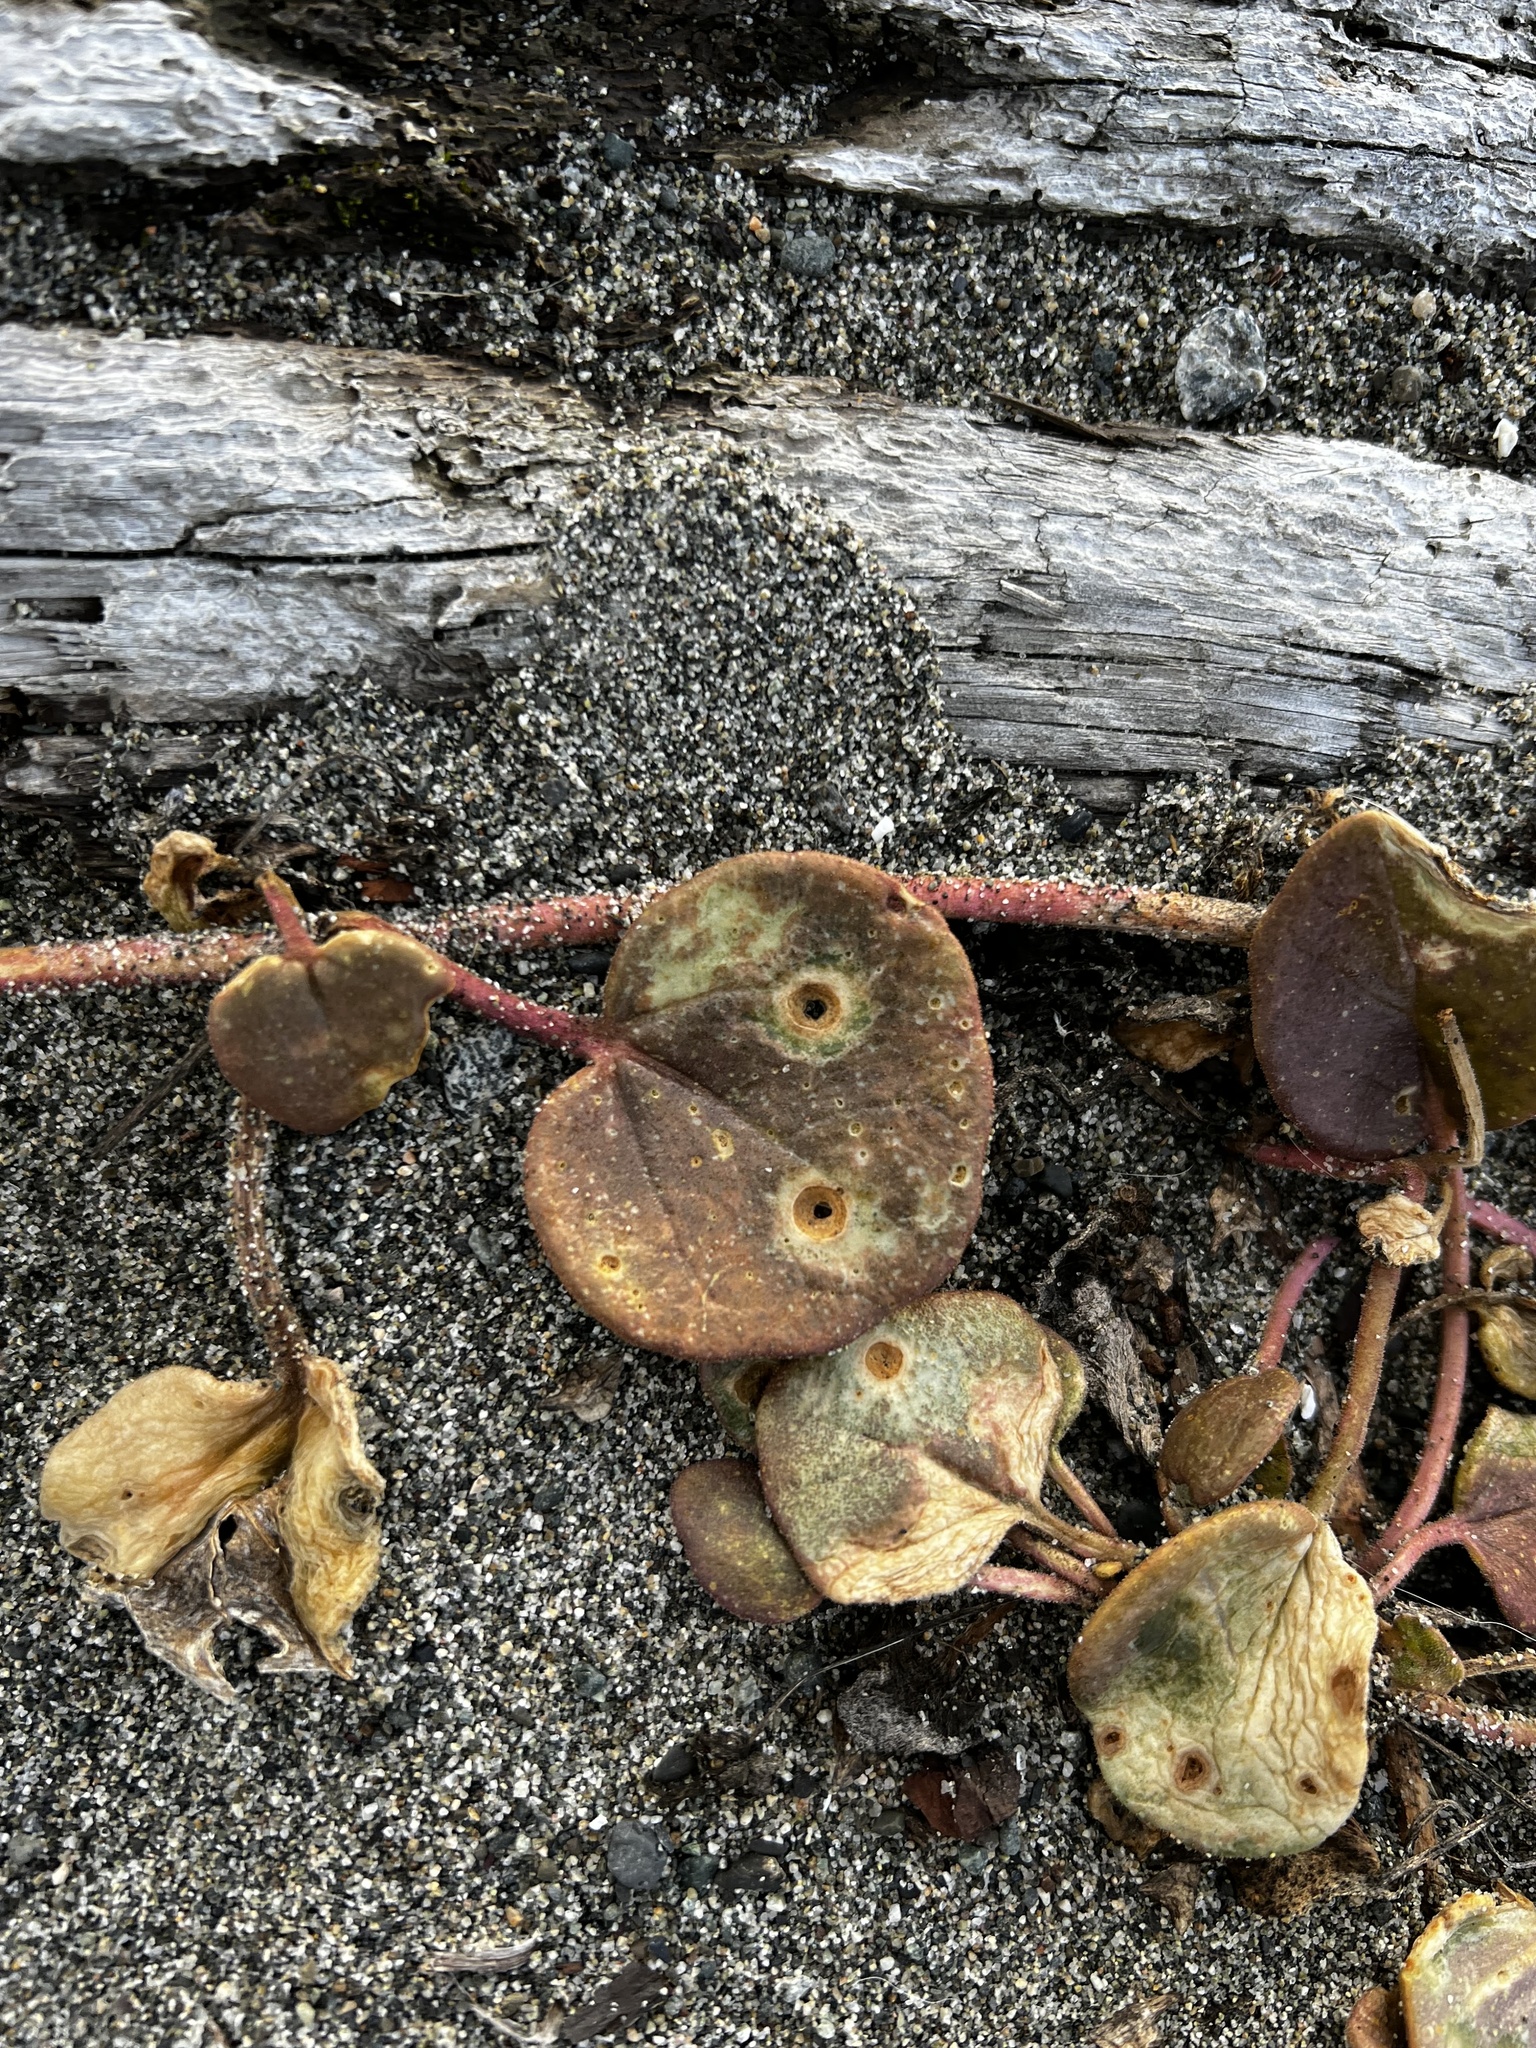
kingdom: Plantae
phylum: Tracheophyta
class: Magnoliopsida
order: Caryophyllales
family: Nyctaginaceae
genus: Abronia
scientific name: Abronia latifolia
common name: Yellow sand-verbena
